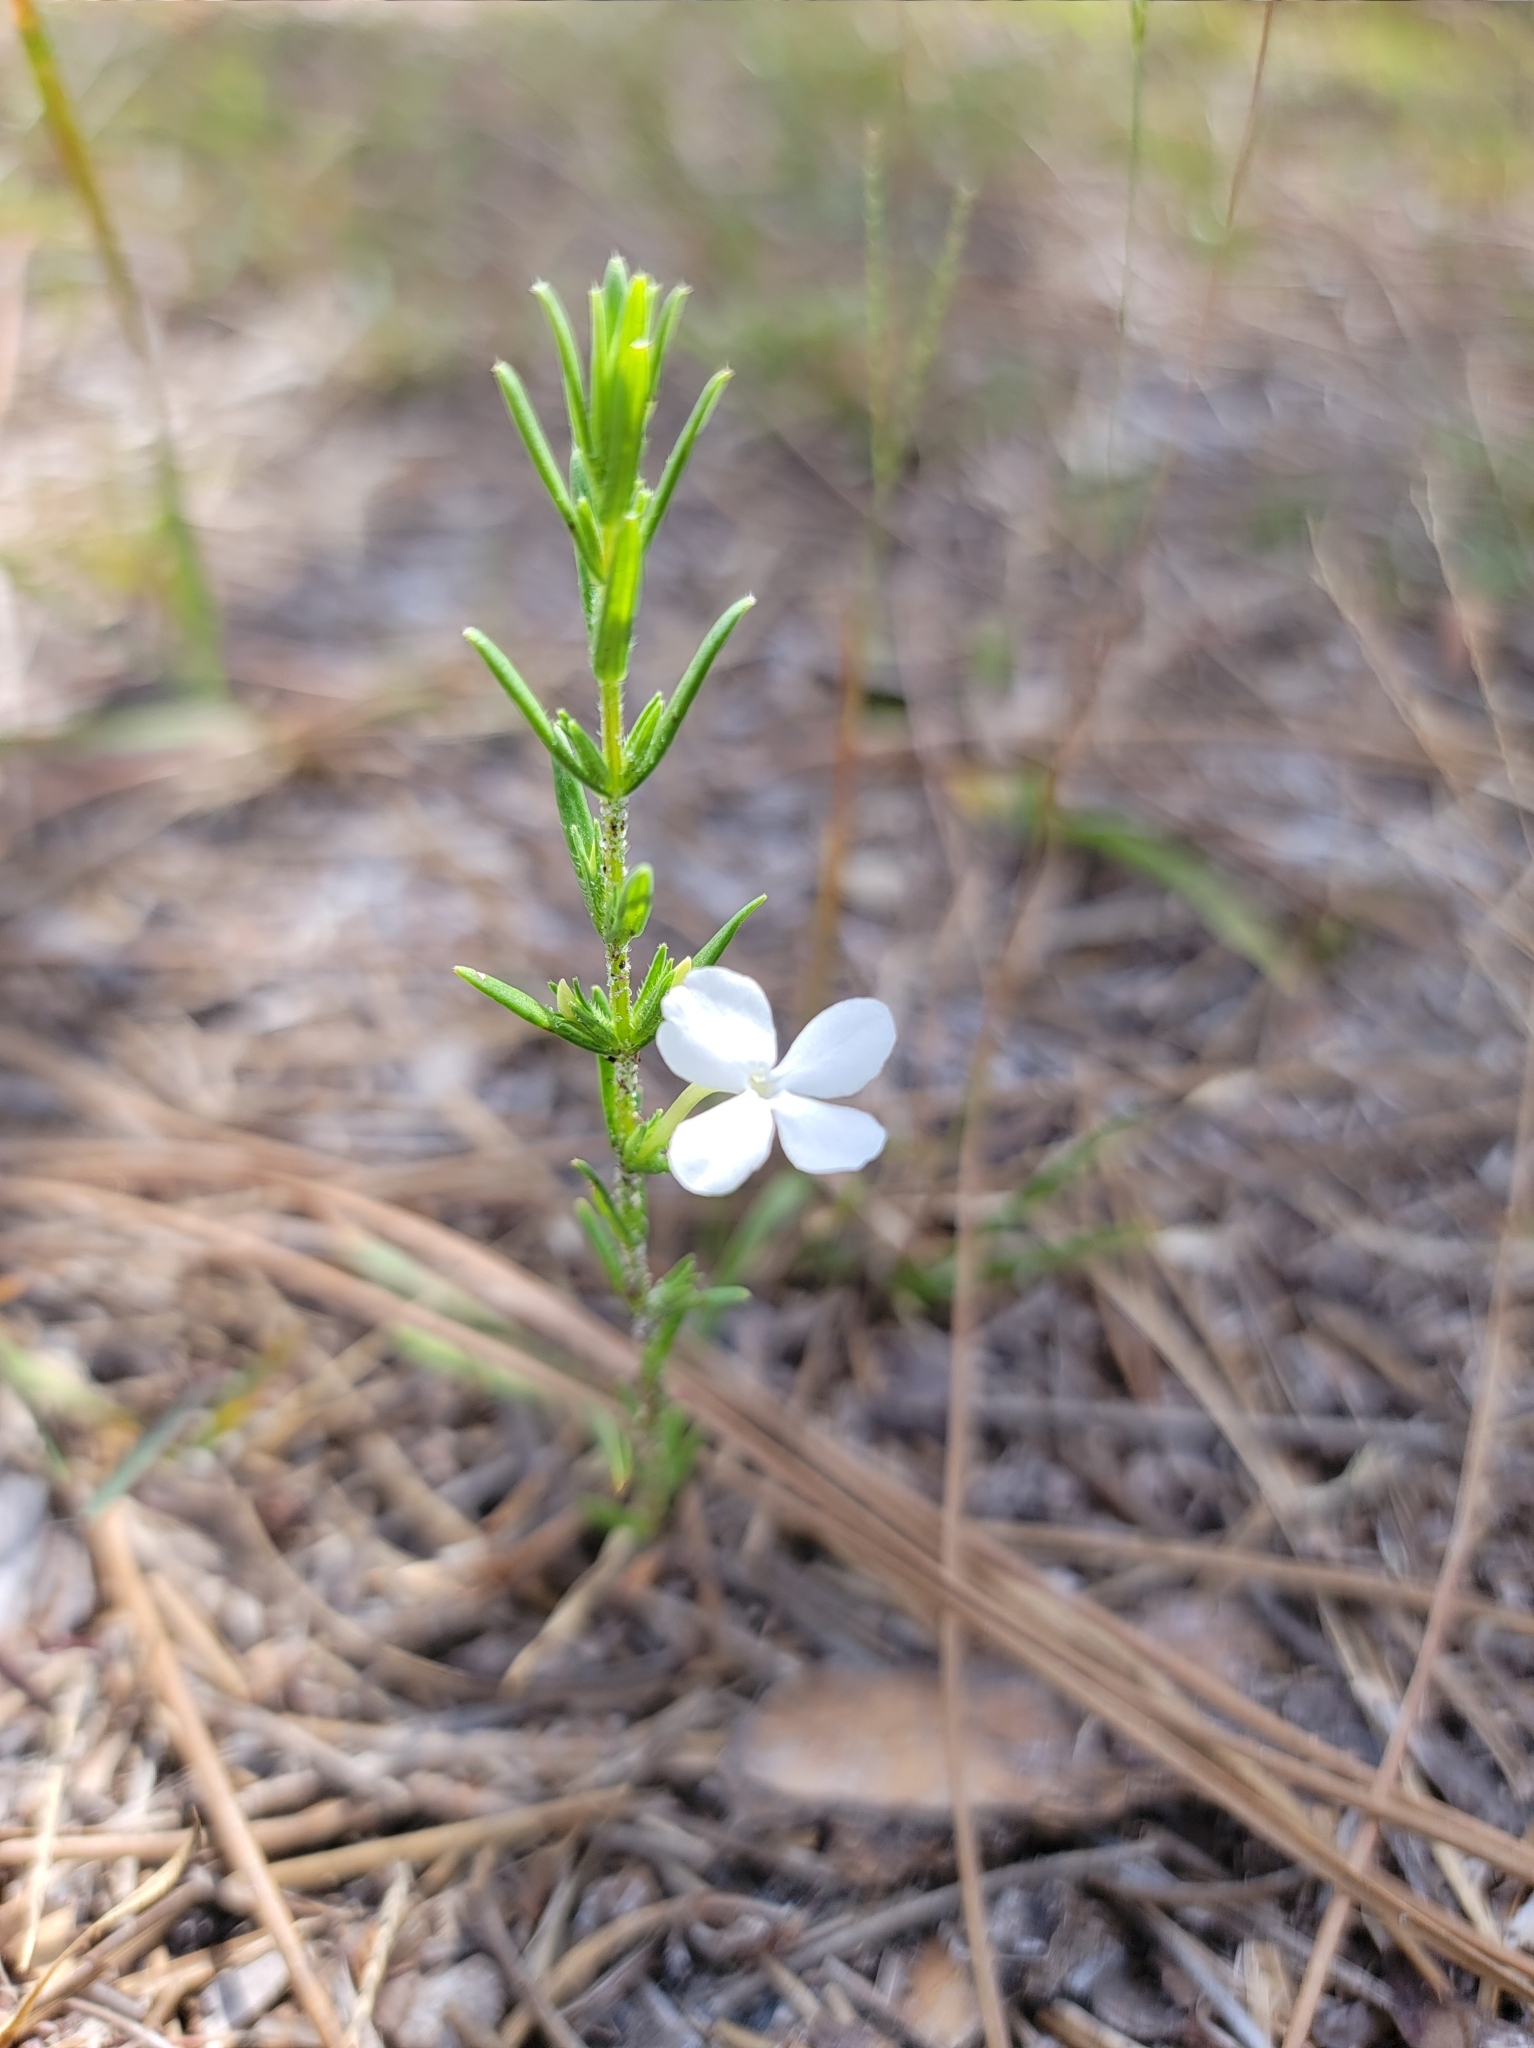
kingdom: Plantae
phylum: Tracheophyta
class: Magnoliopsida
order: Lamiales
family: Plantaginaceae
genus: Gratiola
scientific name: Gratiola hispida
